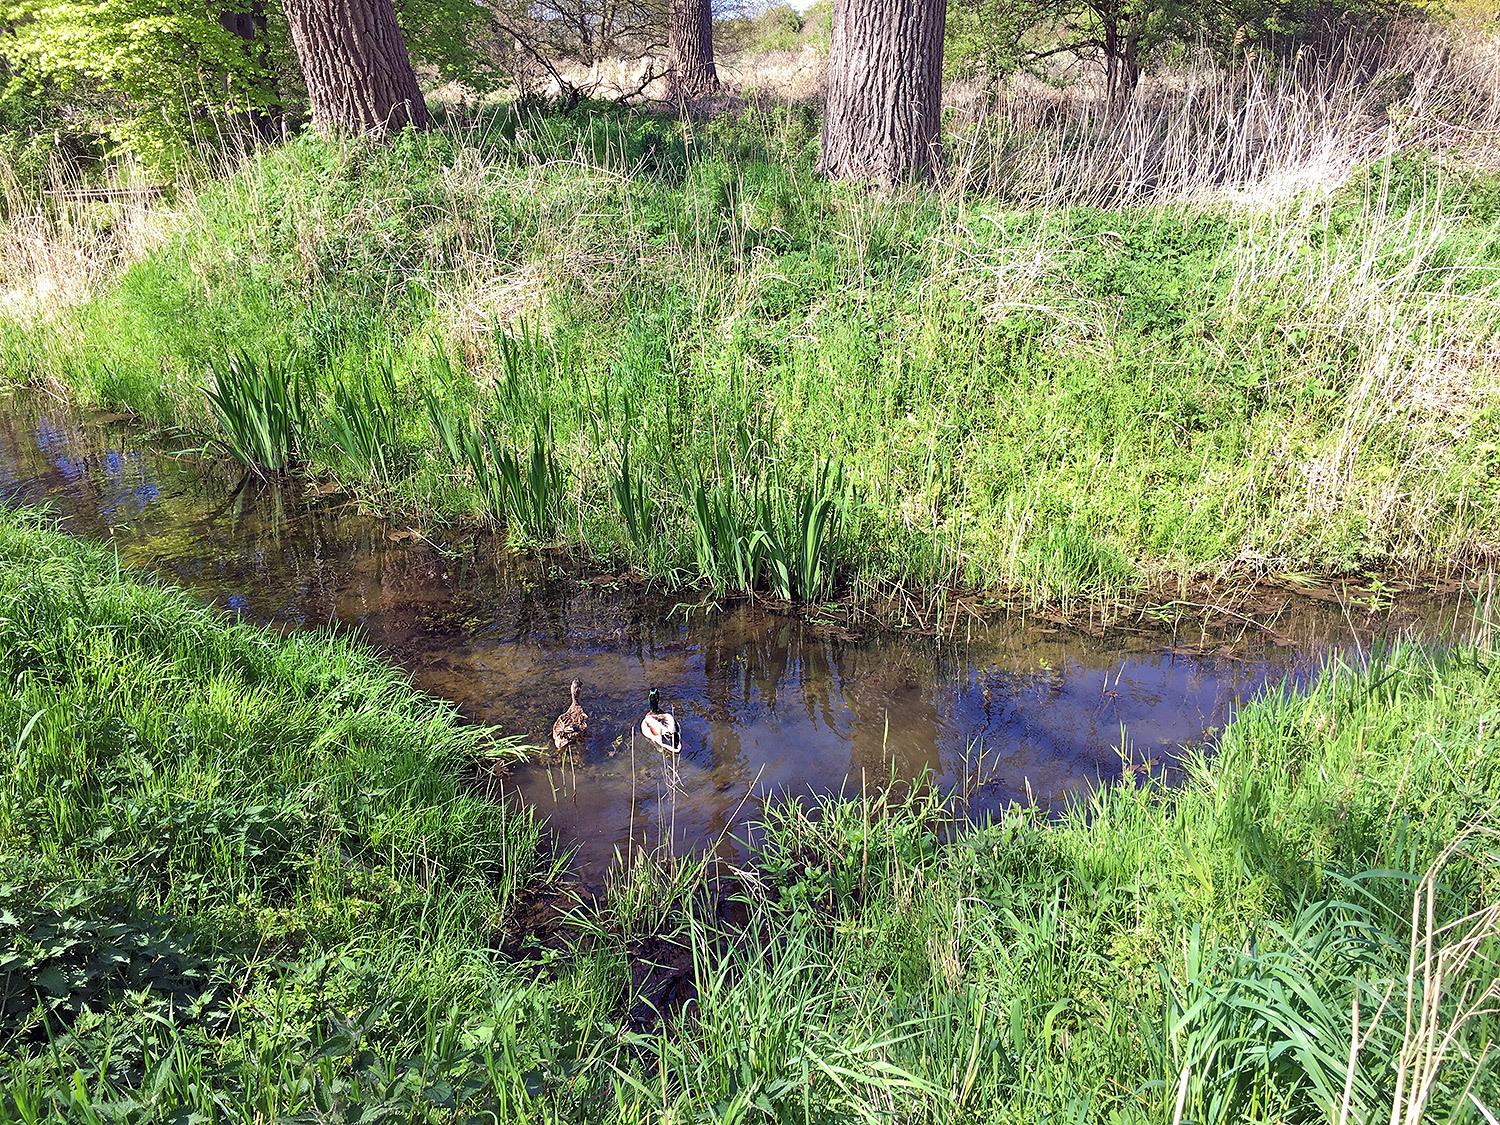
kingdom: Animalia
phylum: Chordata
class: Aves
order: Anseriformes
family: Anatidae
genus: Anas
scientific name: Anas platyrhynchos
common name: Mallard
